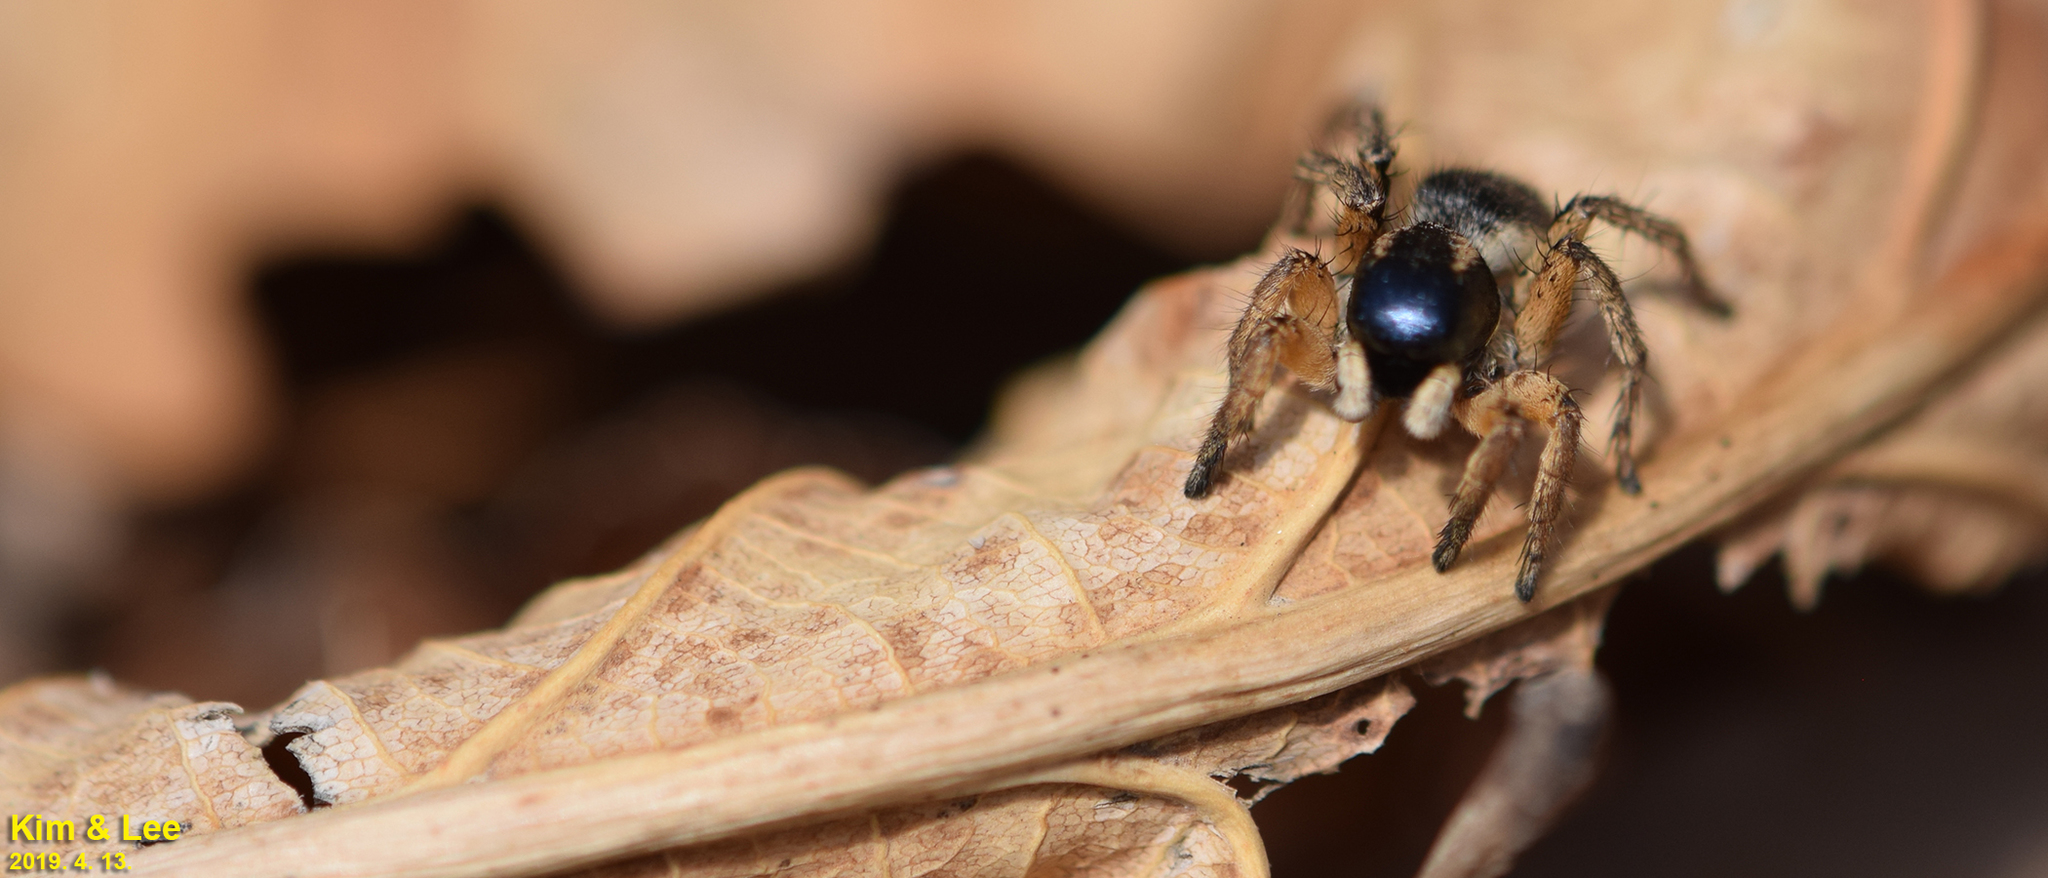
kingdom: Animalia
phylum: Arthropoda
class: Arachnida
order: Araneae
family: Salticidae
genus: Asianellus
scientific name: Asianellus festivus
